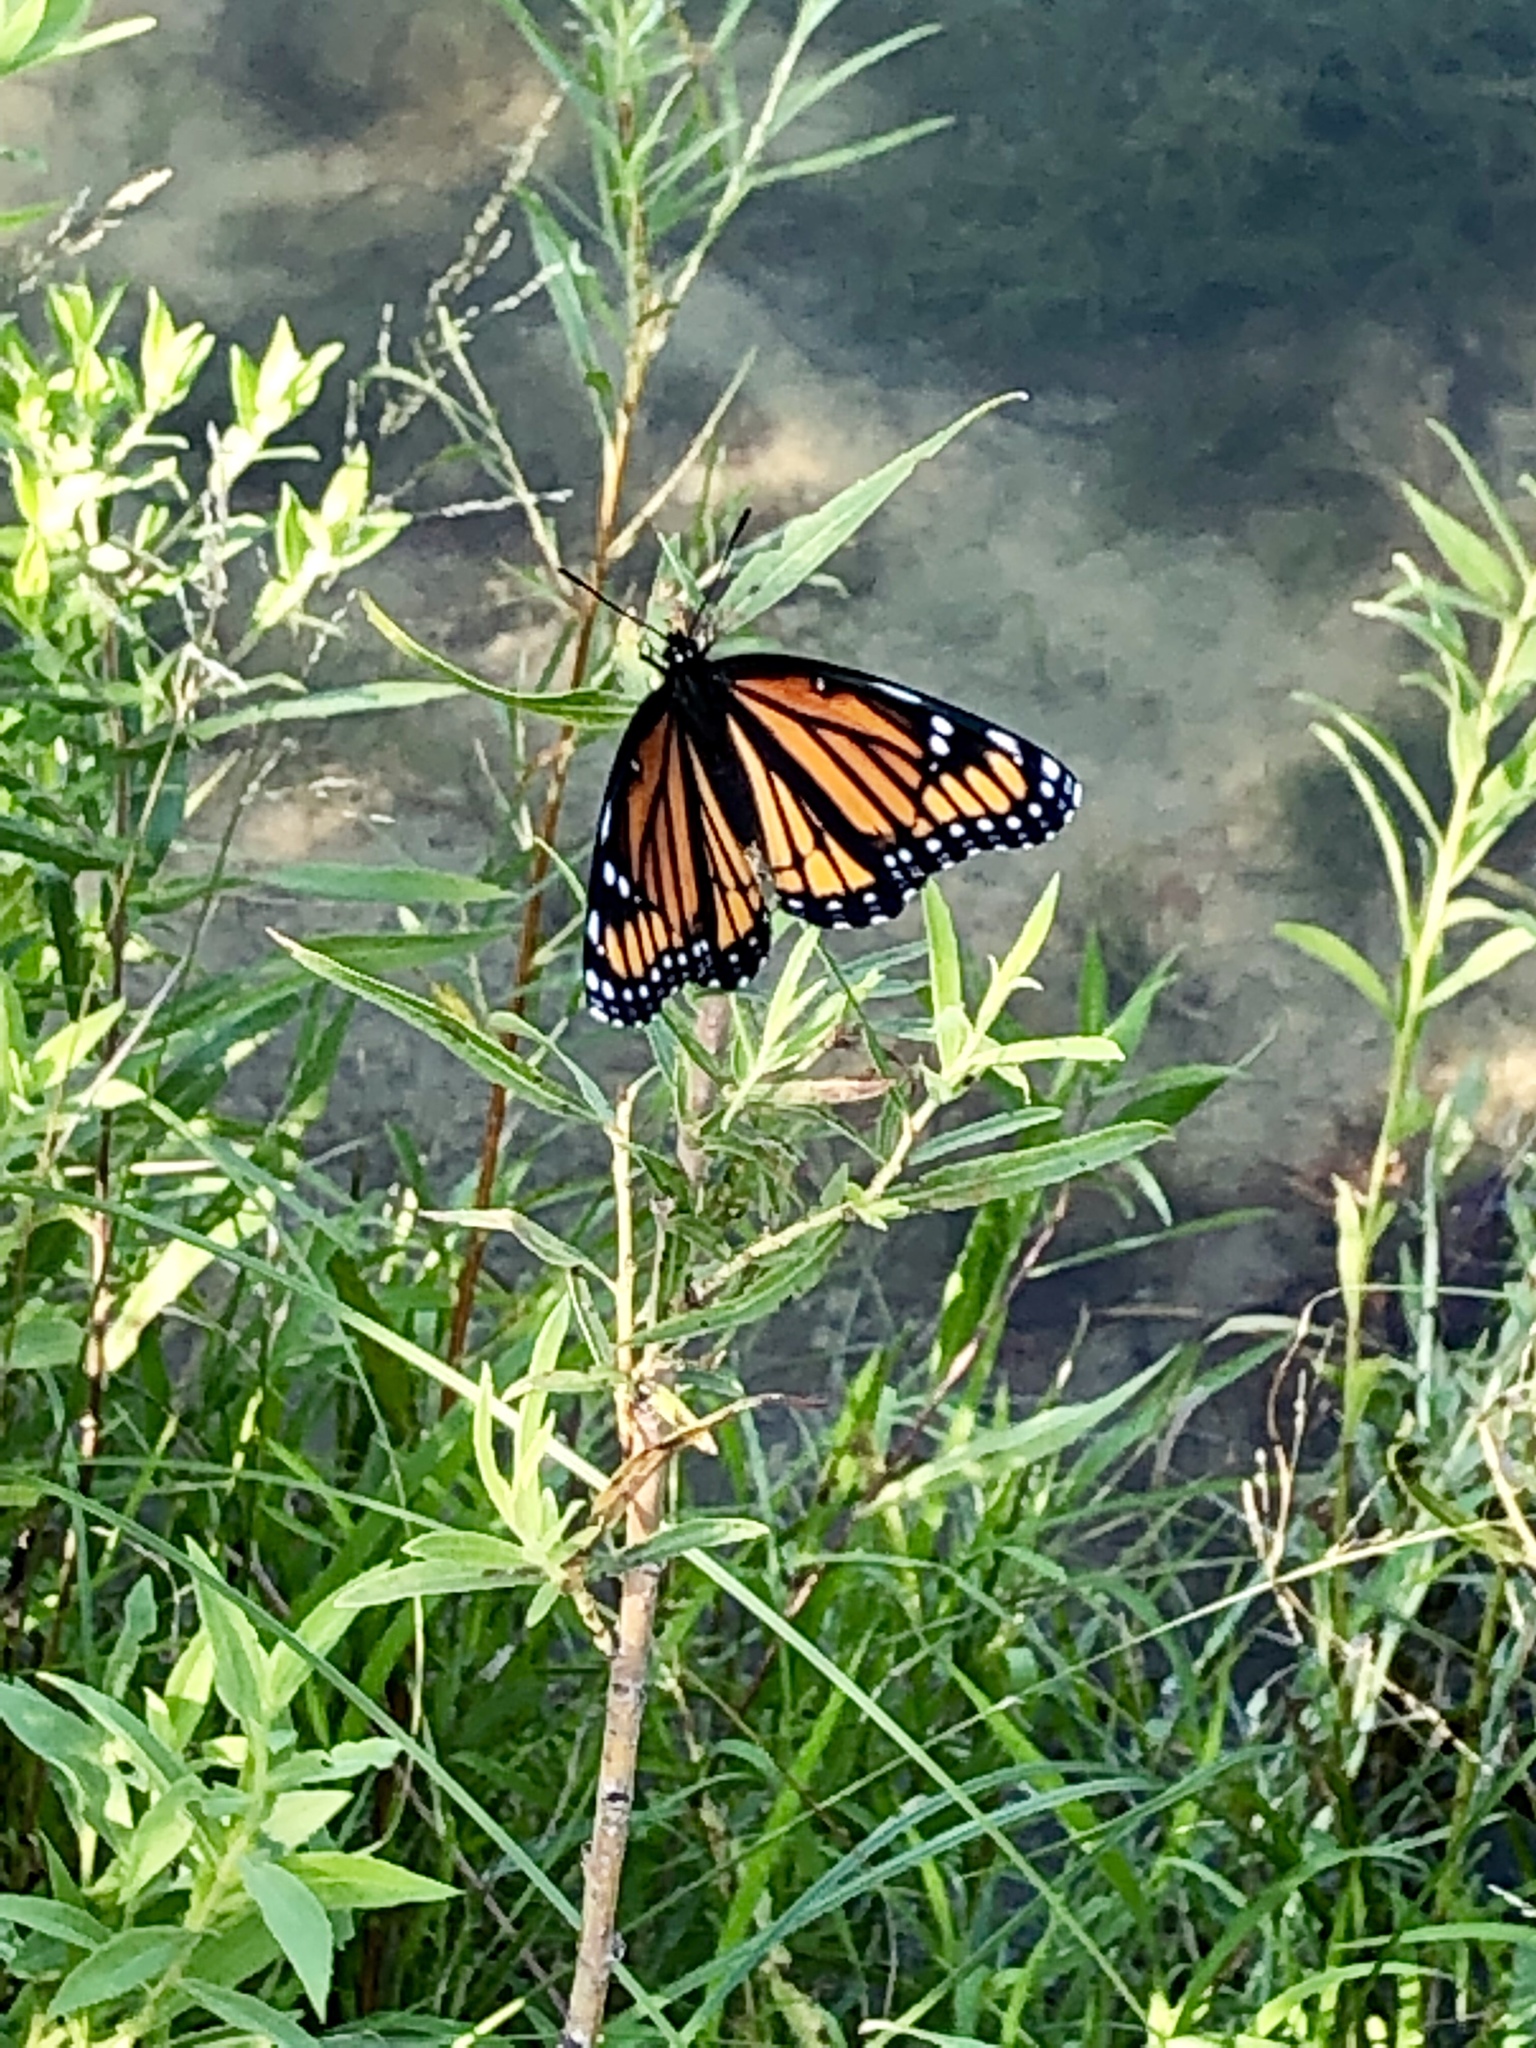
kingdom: Animalia
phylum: Arthropoda
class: Insecta
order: Lepidoptera
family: Nymphalidae
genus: Limenitis
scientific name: Limenitis archippus
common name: Viceroy
